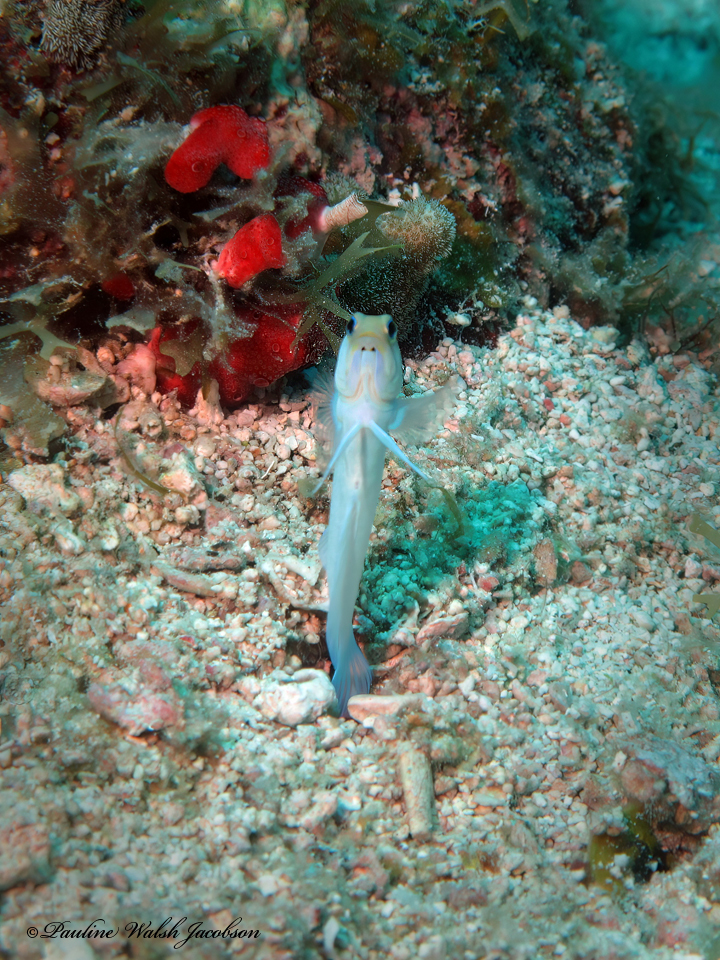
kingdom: Animalia
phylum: Chordata
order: Perciformes
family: Opistognathidae
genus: Opistognathus
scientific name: Opistognathus aurifrons
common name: Yellowhead jawfish
